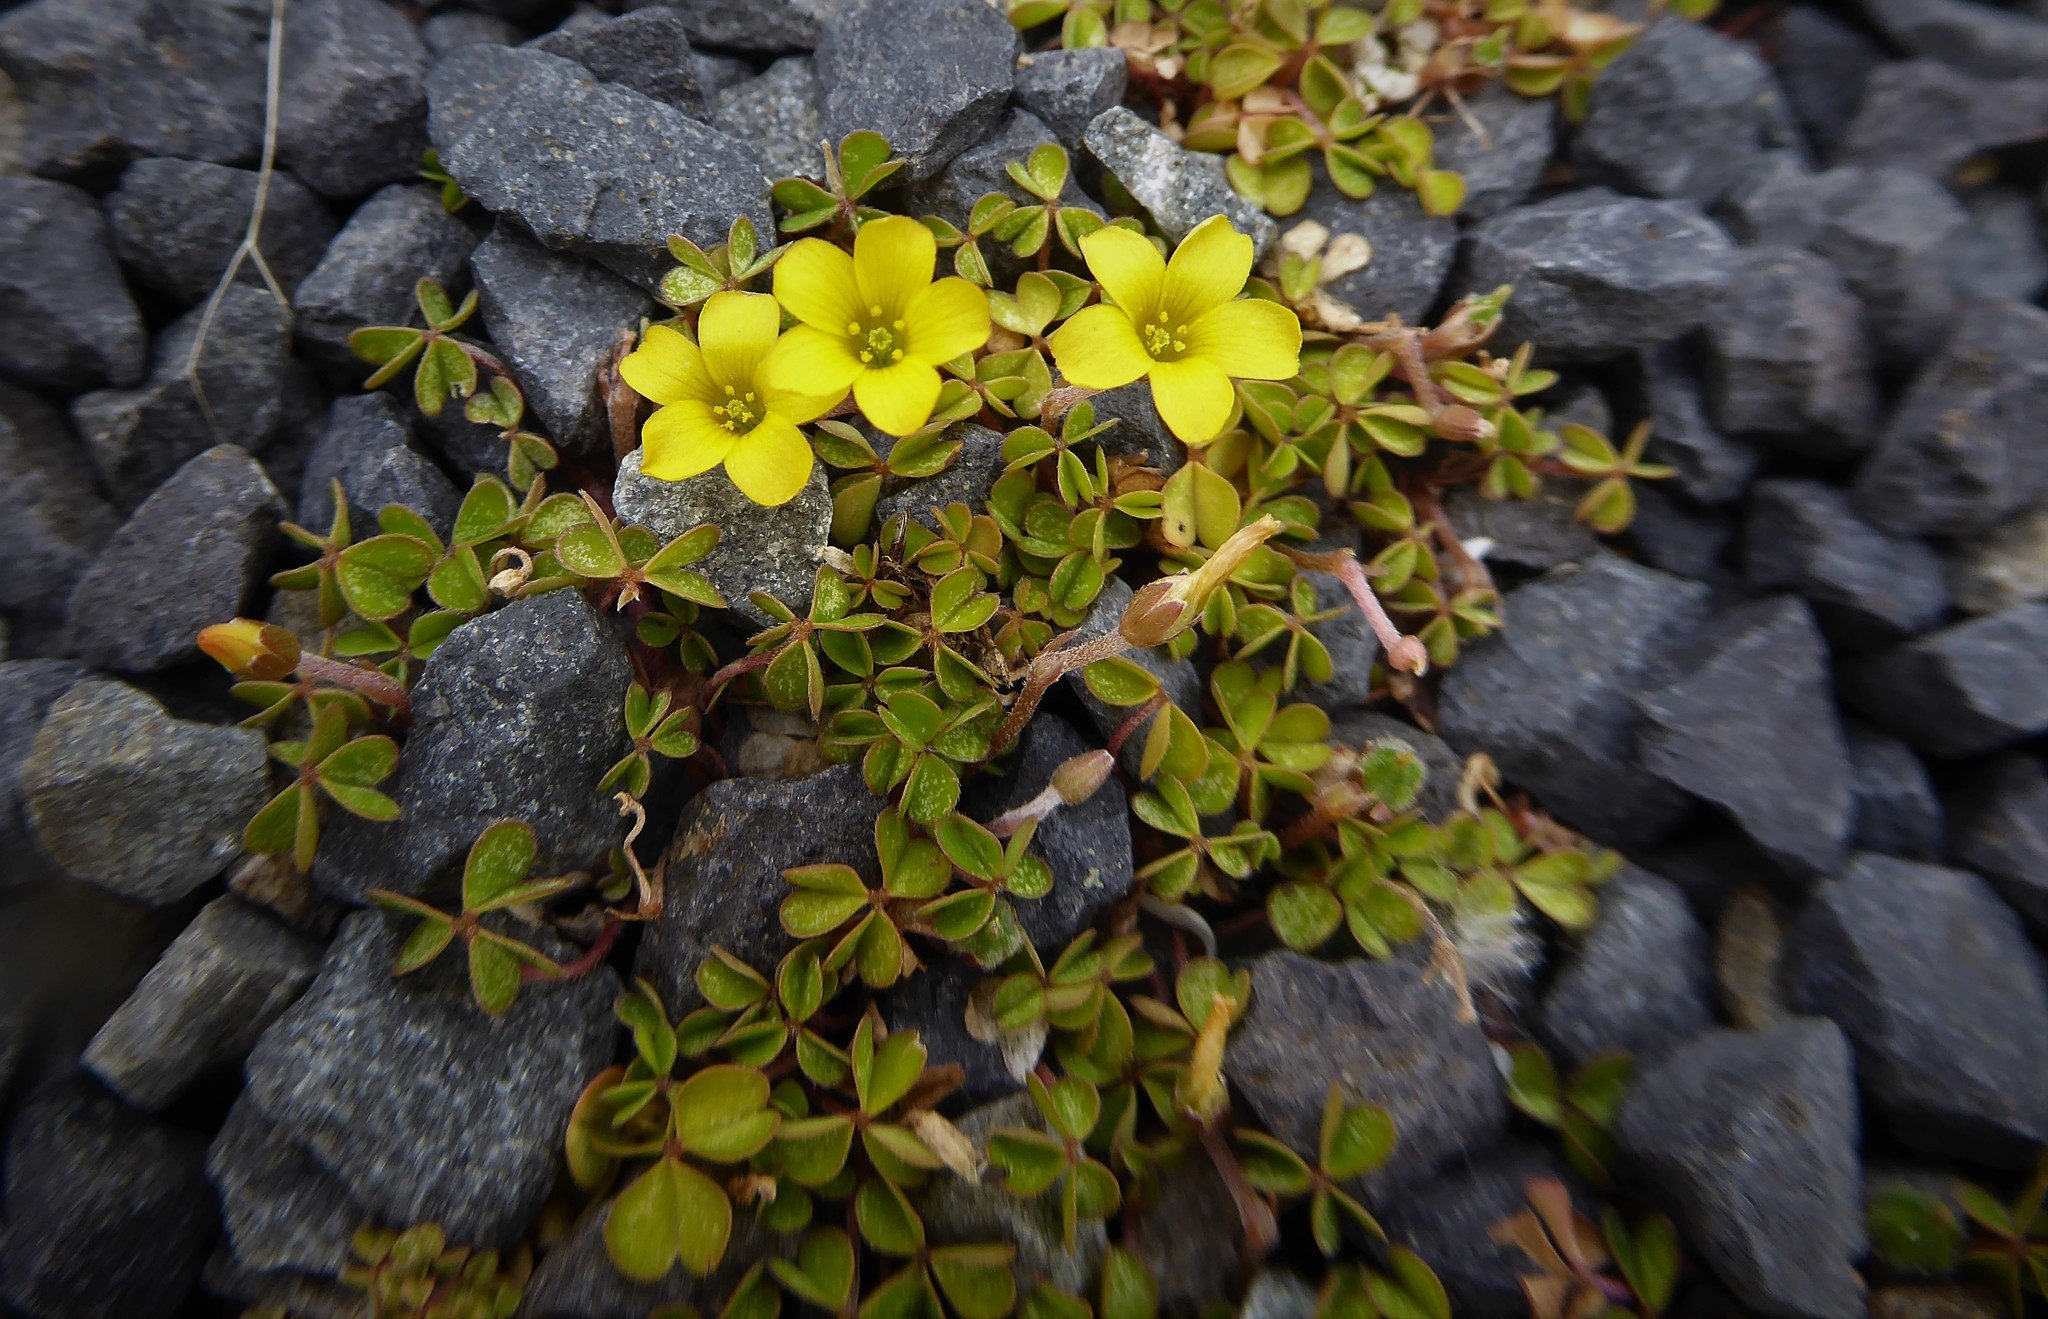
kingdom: Plantae
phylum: Tracheophyta
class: Magnoliopsida
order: Oxalidales
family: Oxalidaceae
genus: Oxalis
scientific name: Oxalis exilis
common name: Least yellow-sorrel
